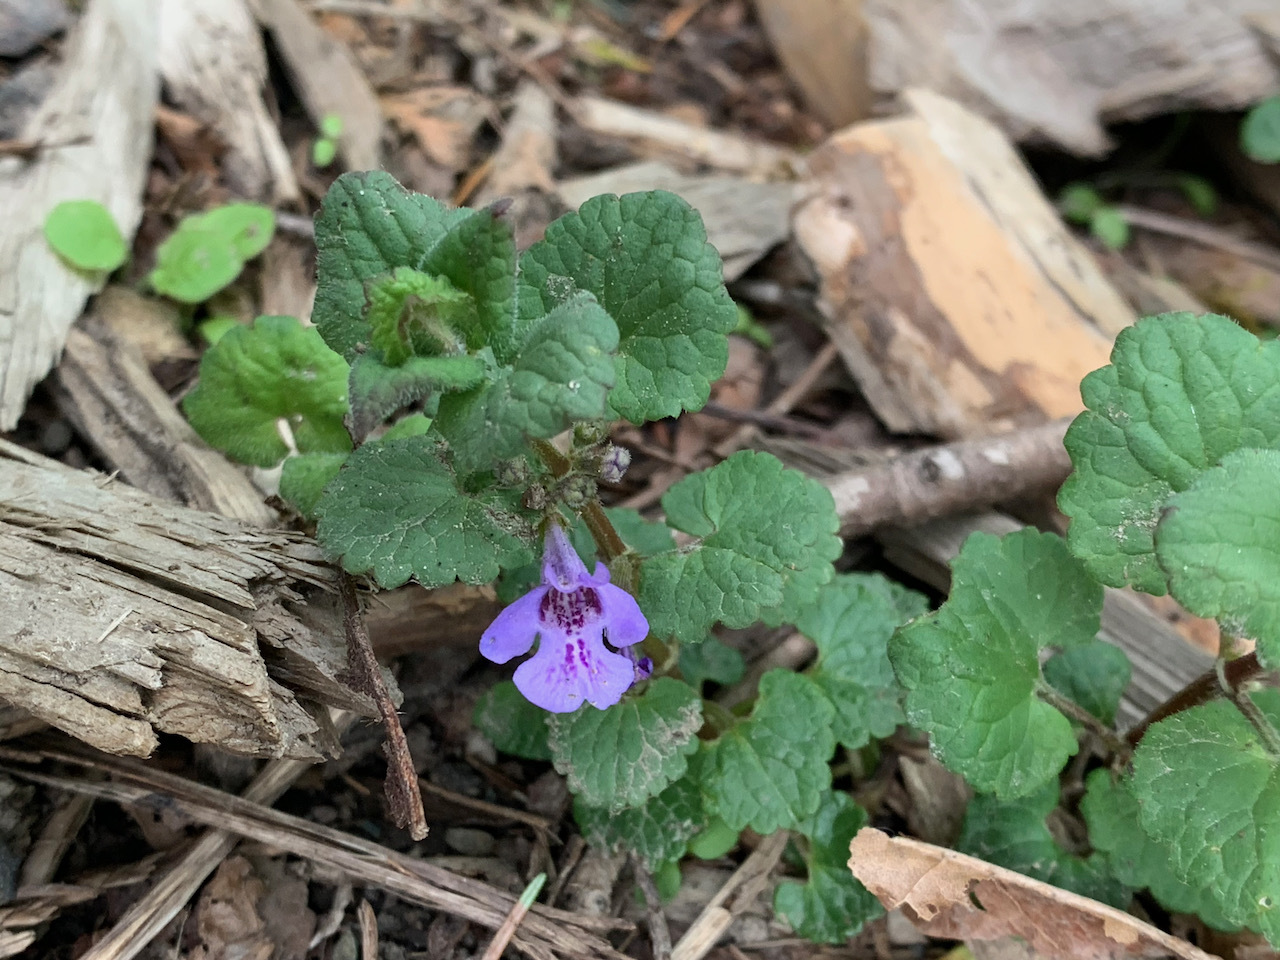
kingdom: Plantae
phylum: Tracheophyta
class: Magnoliopsida
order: Lamiales
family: Lamiaceae
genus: Glechoma
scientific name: Glechoma hederacea
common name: Ground ivy
